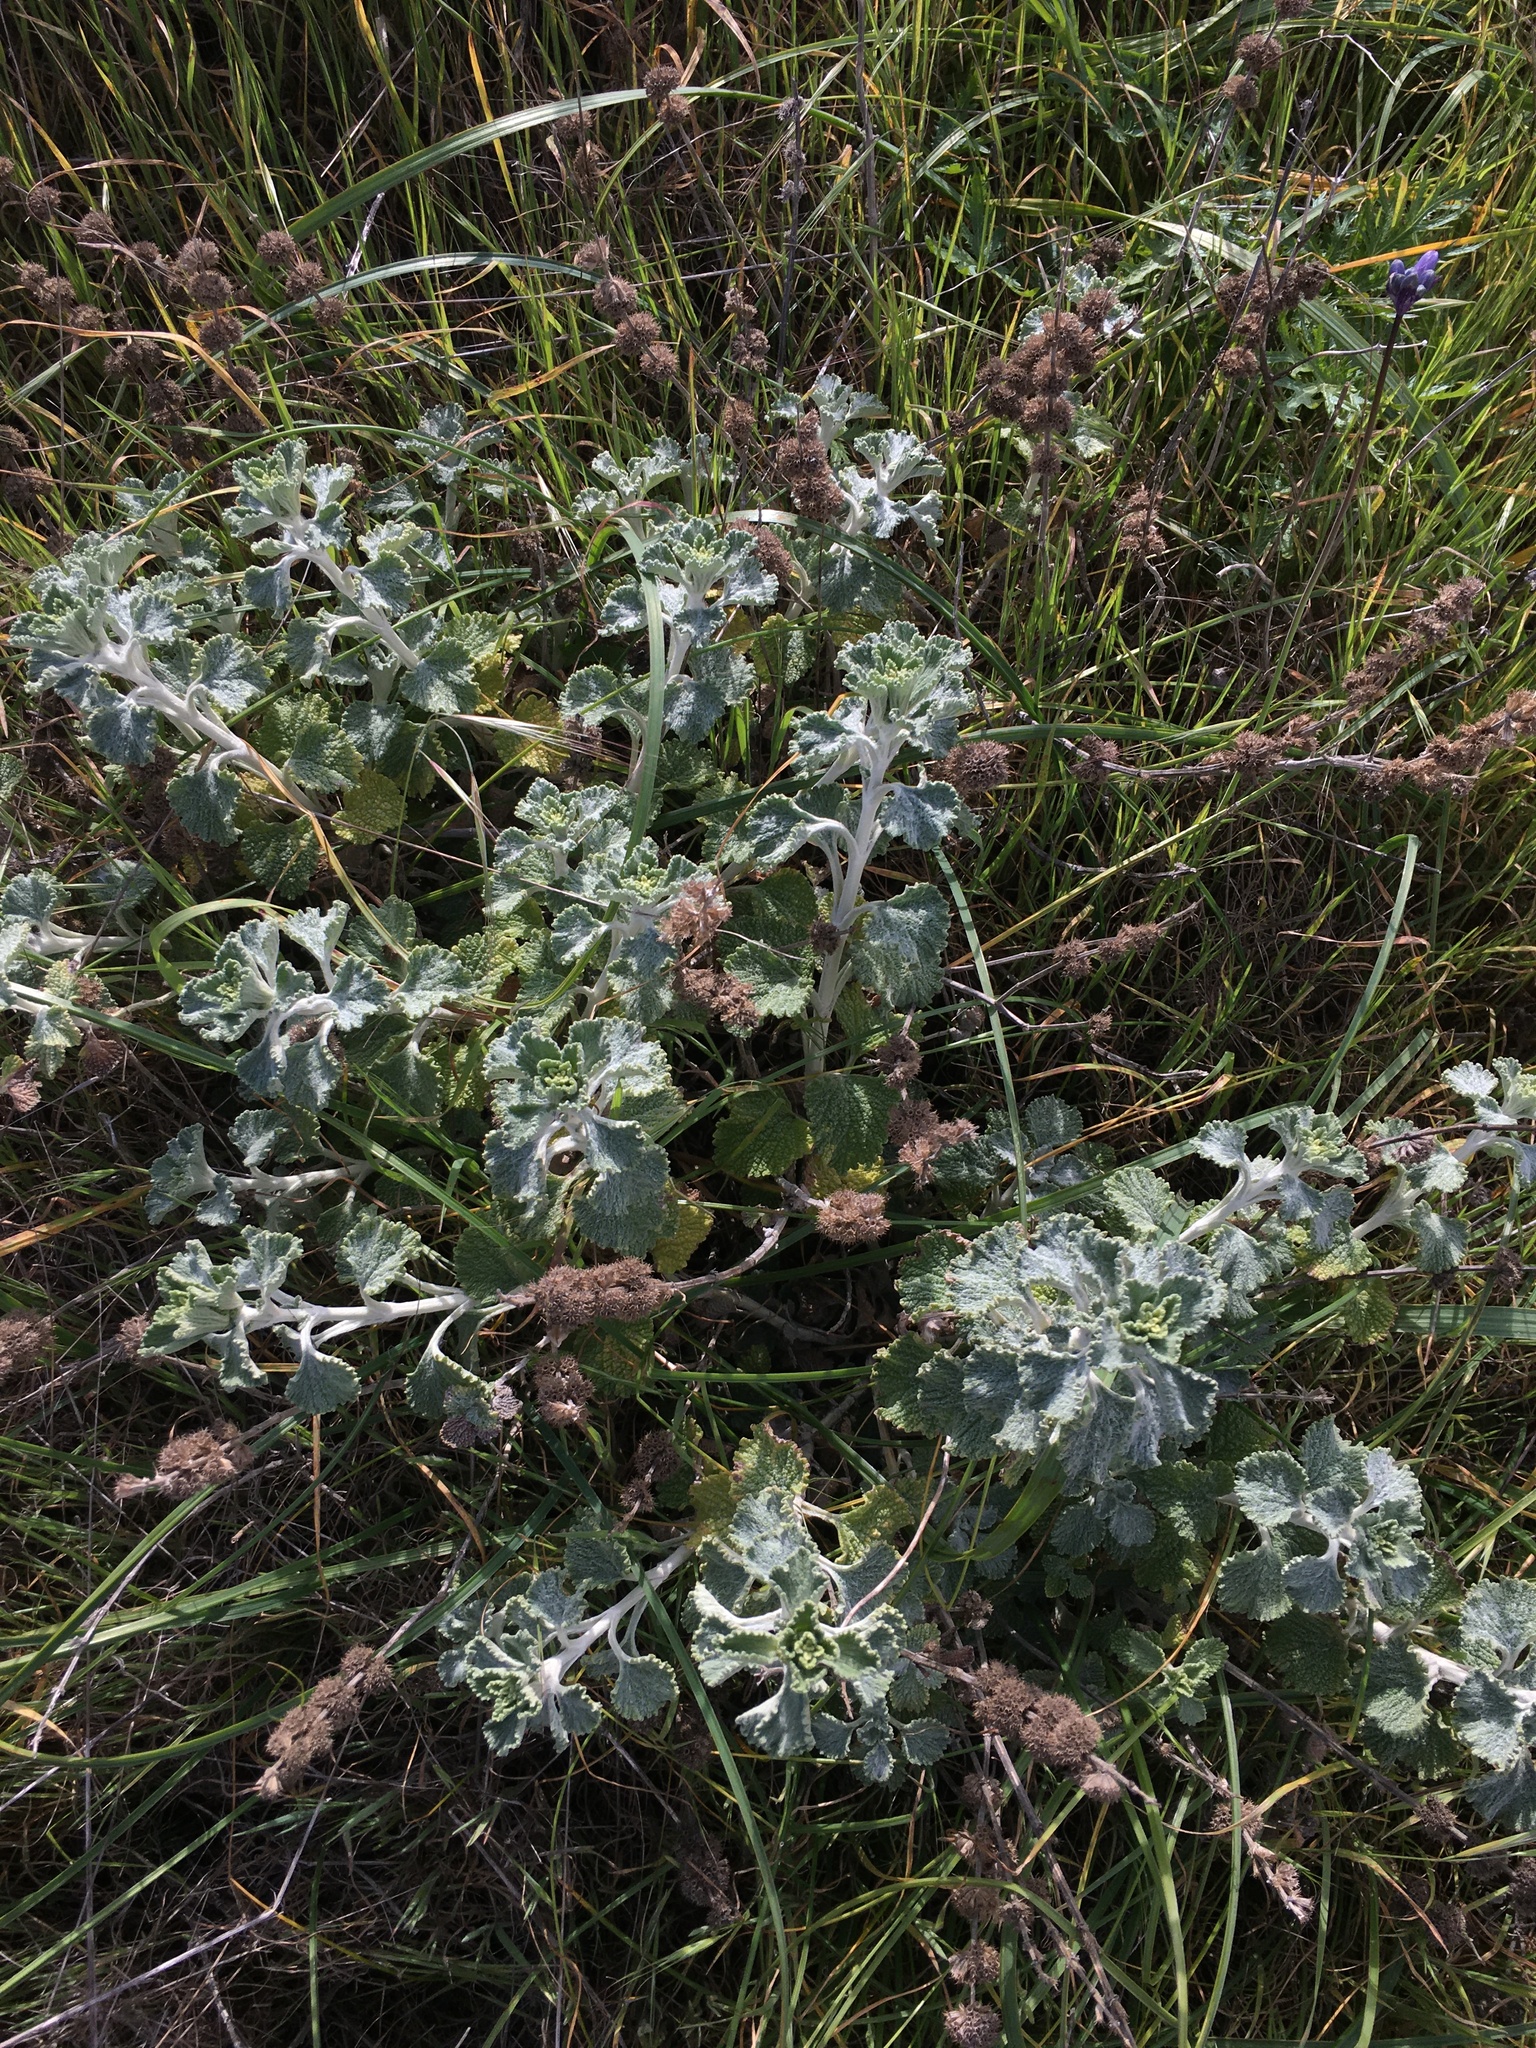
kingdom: Plantae
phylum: Tracheophyta
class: Magnoliopsida
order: Lamiales
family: Lamiaceae
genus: Marrubium
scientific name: Marrubium vulgare
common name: Horehound
